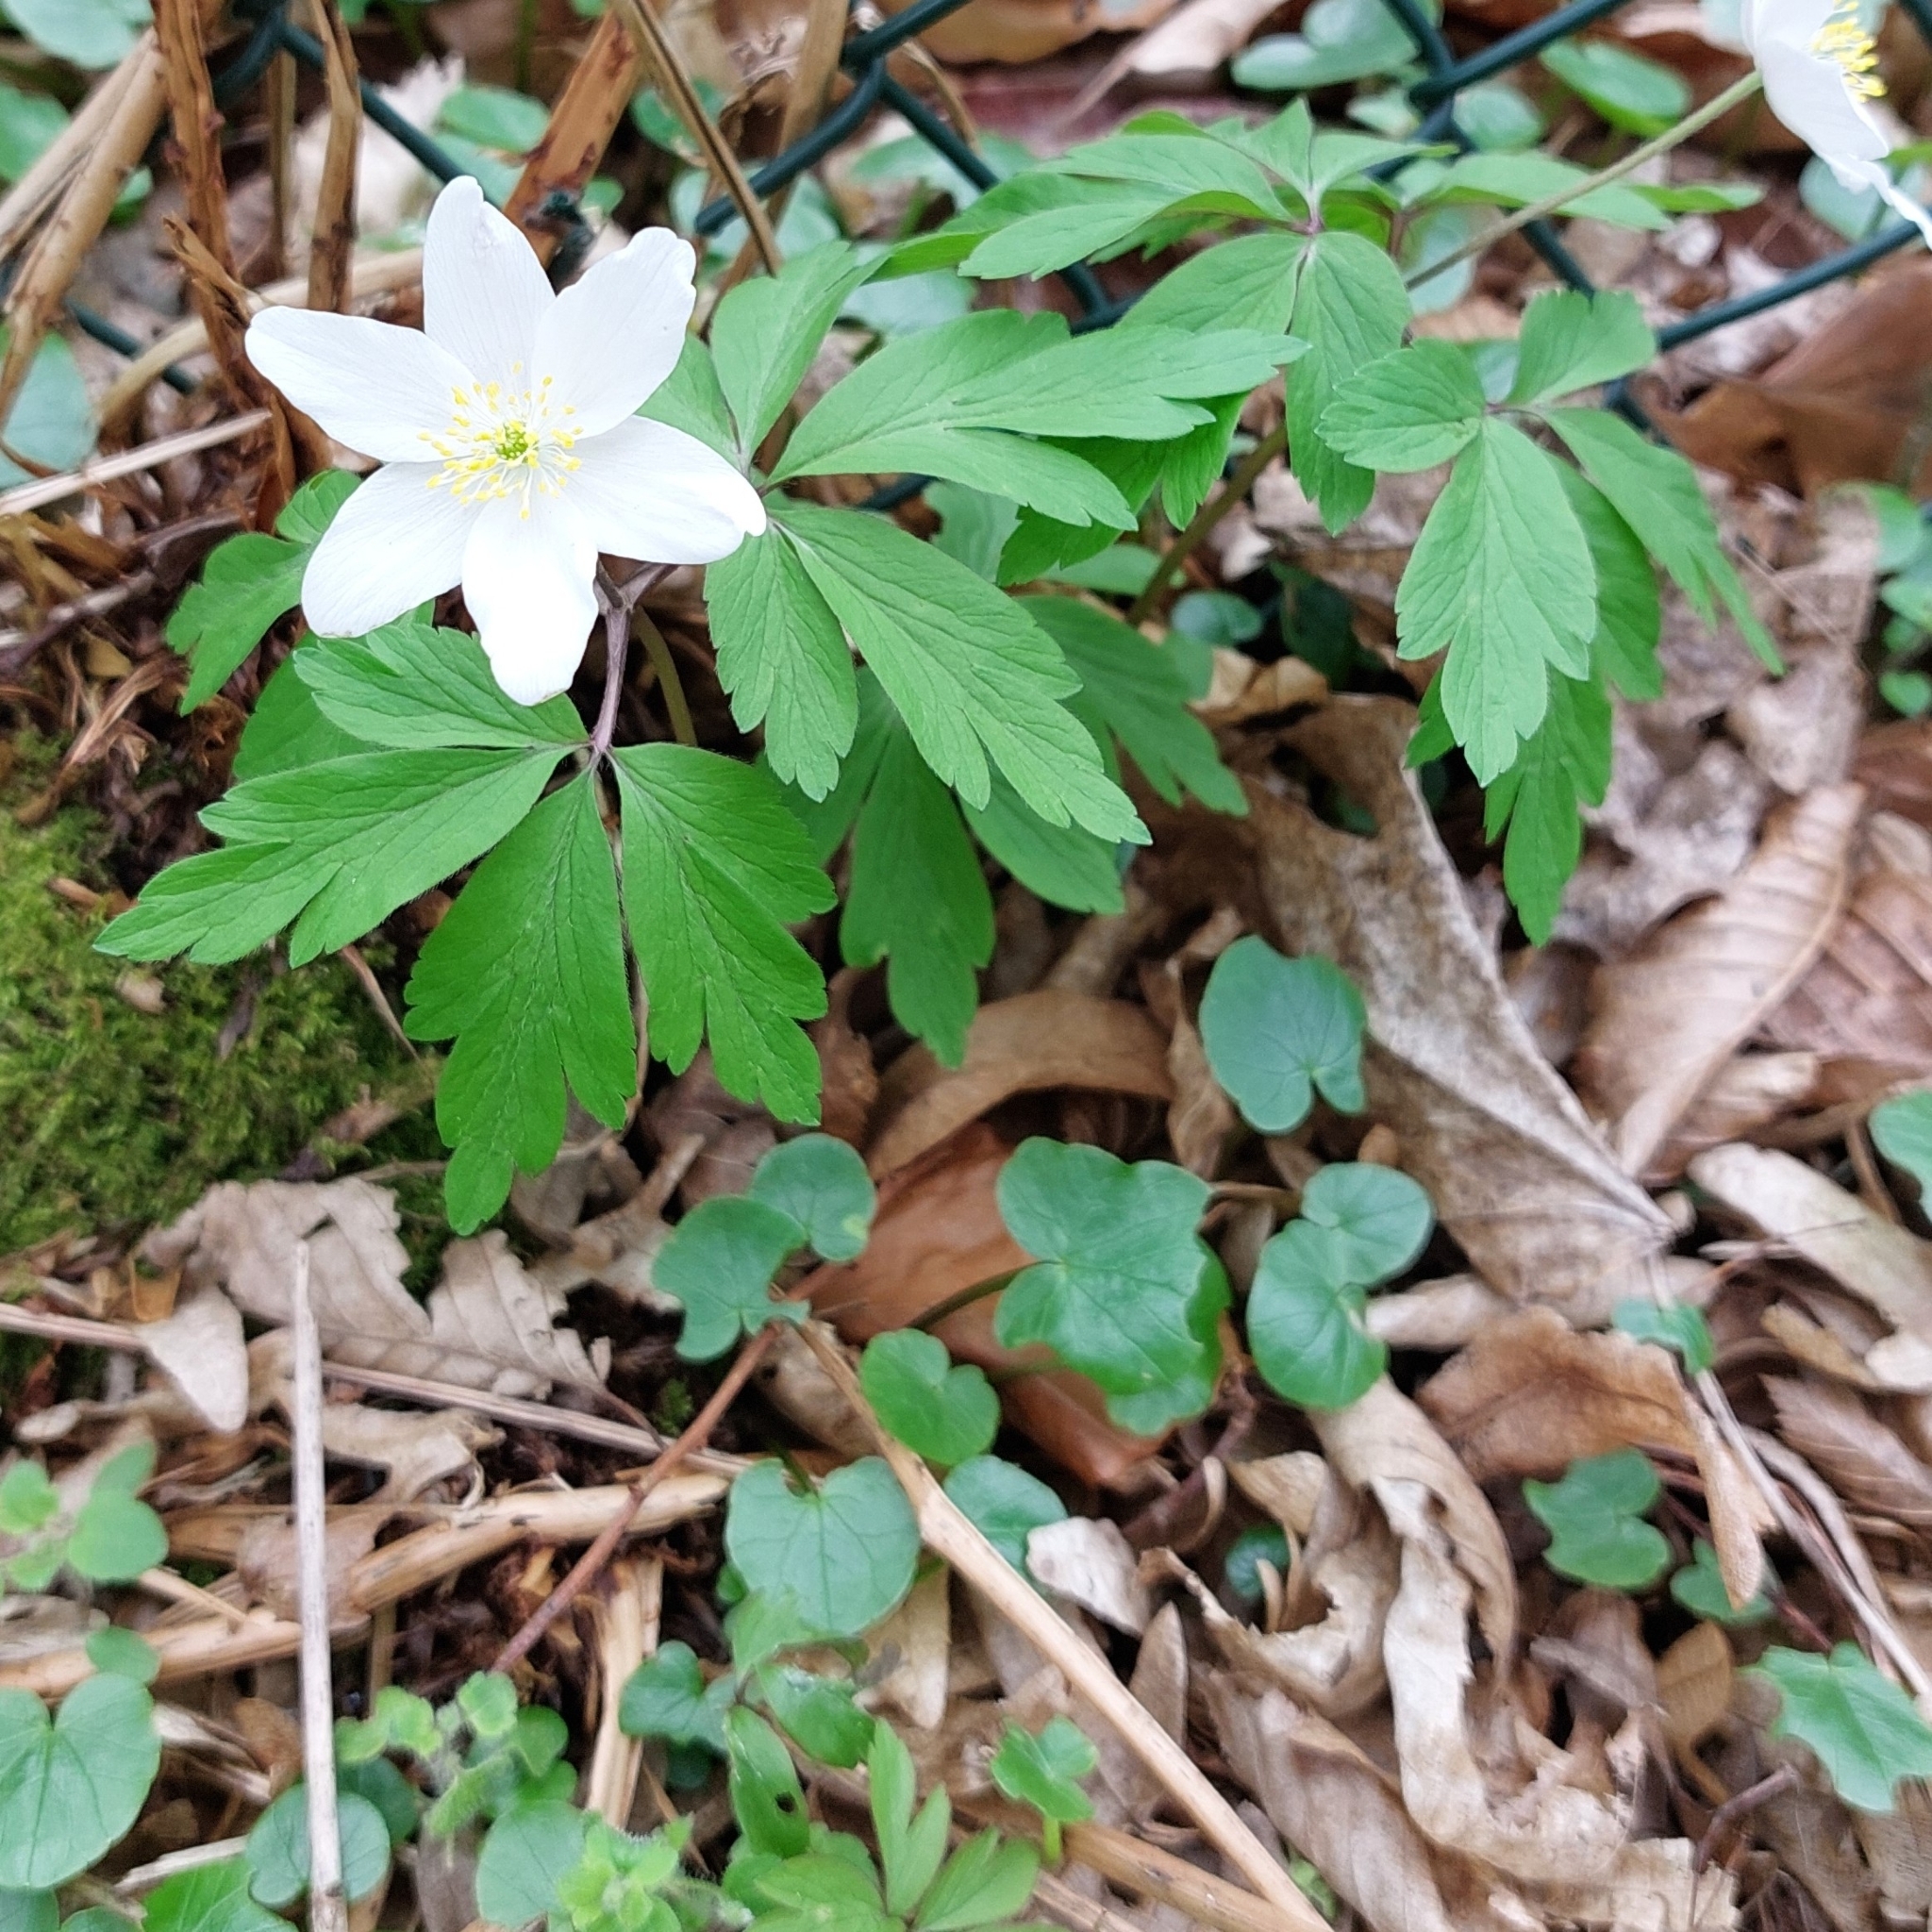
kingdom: Plantae
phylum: Tracheophyta
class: Magnoliopsida
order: Ranunculales
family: Ranunculaceae
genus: Anemone
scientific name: Anemone nemorosa
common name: Wood anemone
